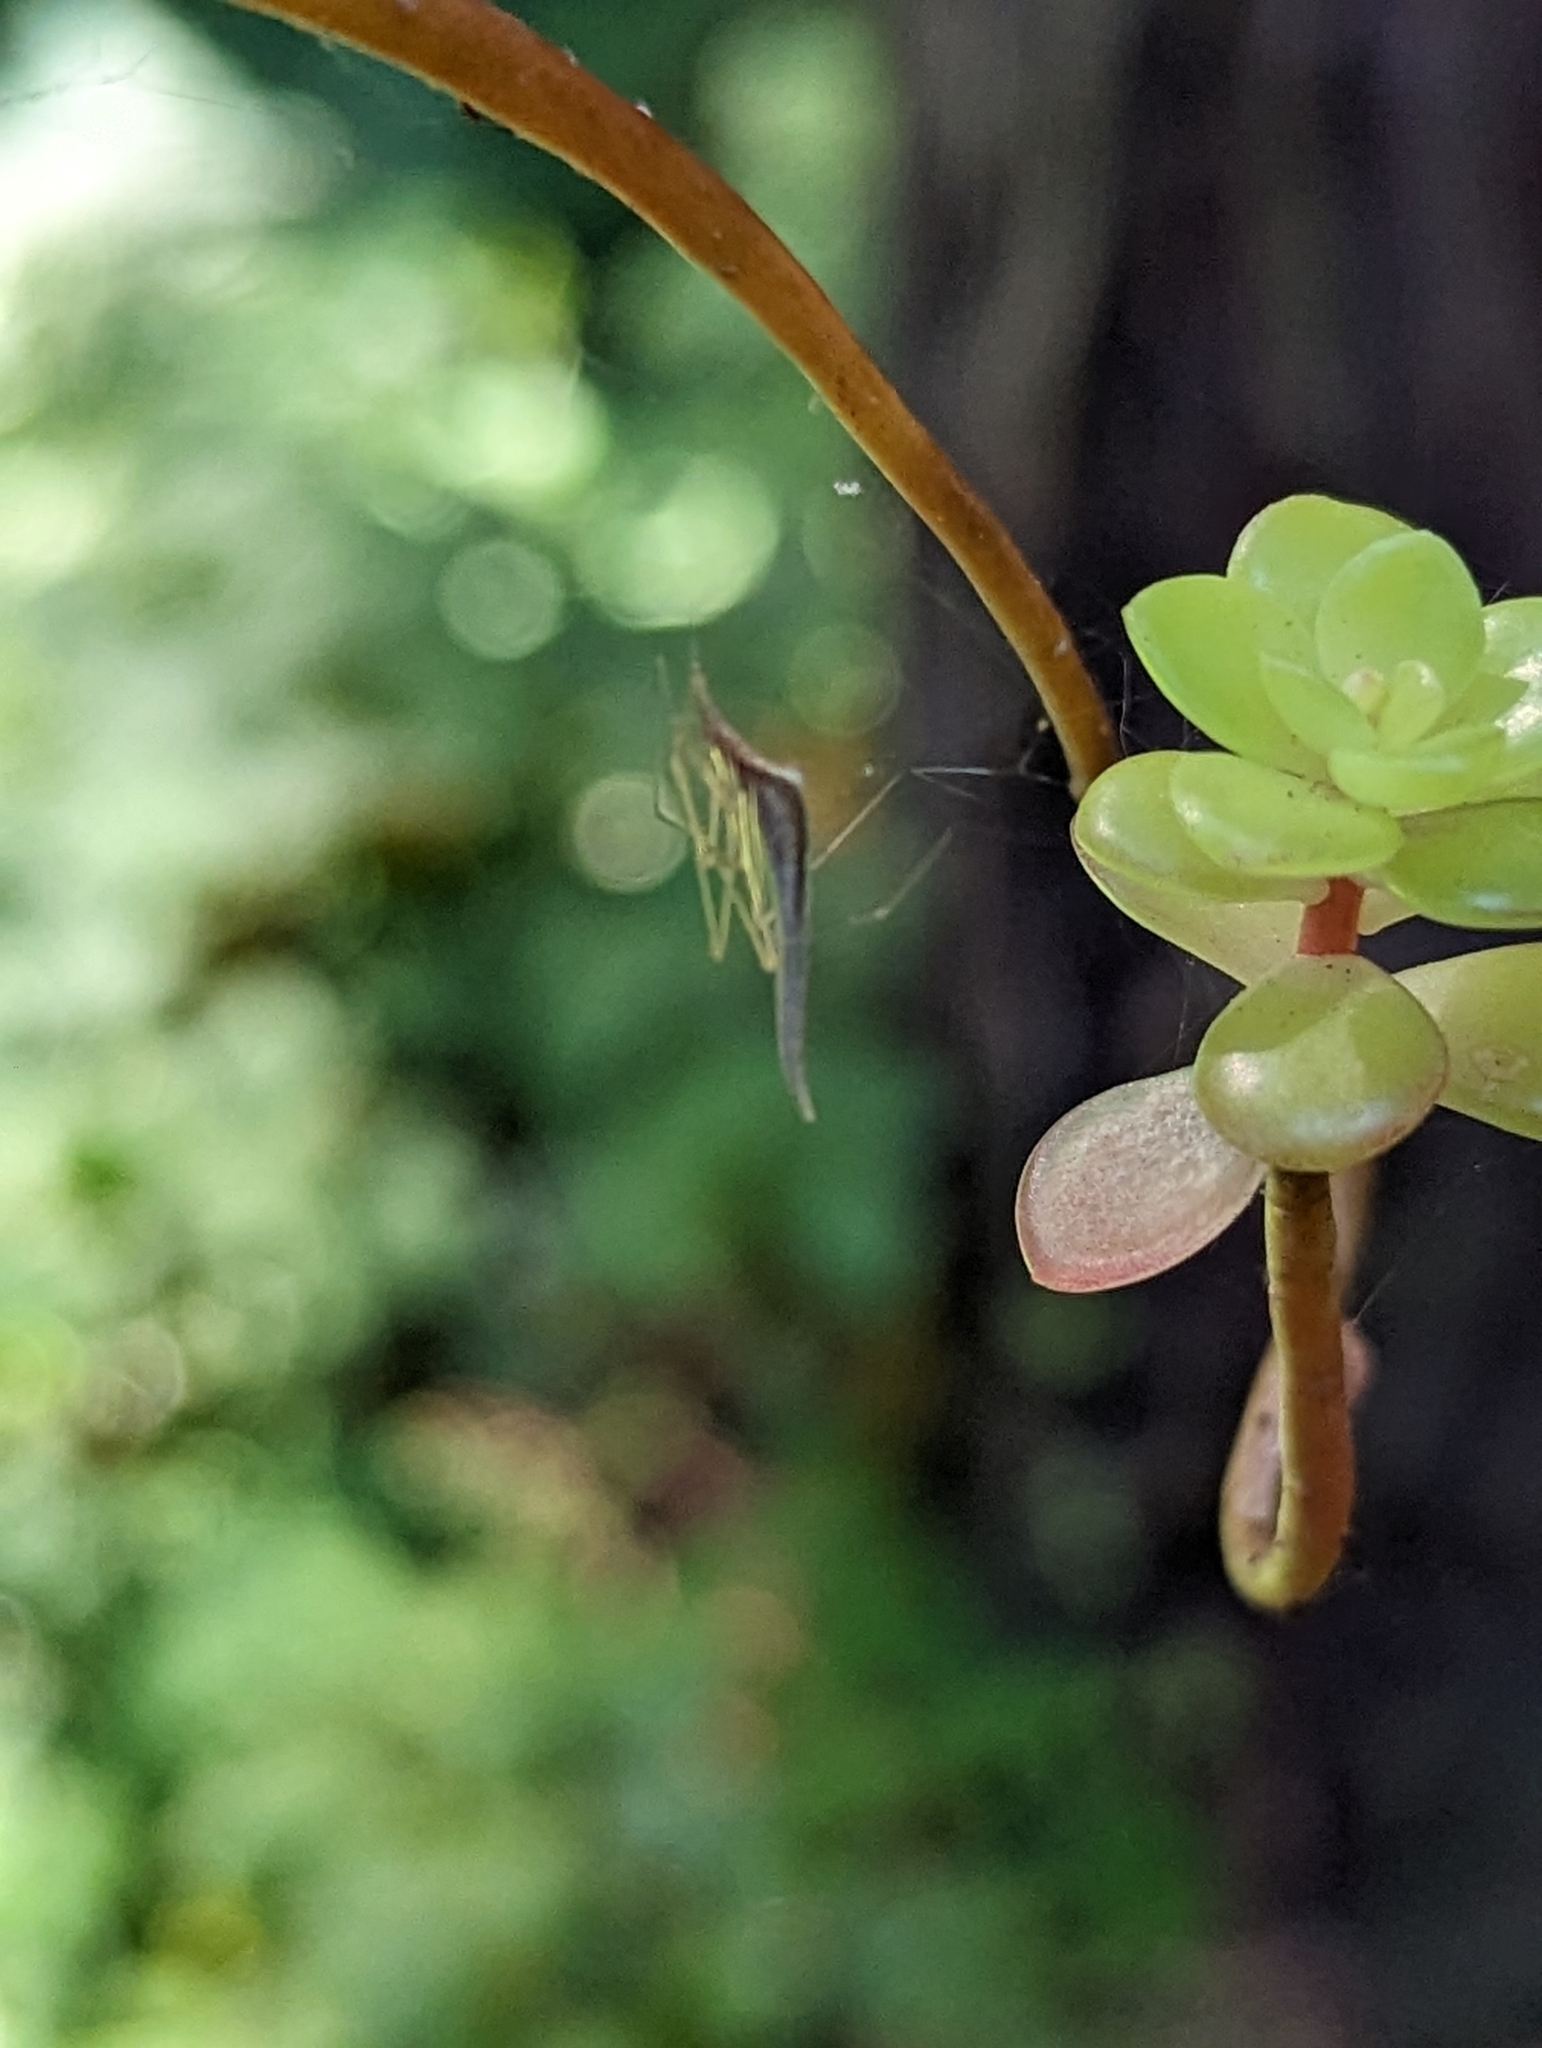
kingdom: Animalia
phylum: Arthropoda
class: Arachnida
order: Araneae
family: Theridiidae
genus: Rhomphaea
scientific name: Rhomphaea fictilium
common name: Lizard spider
